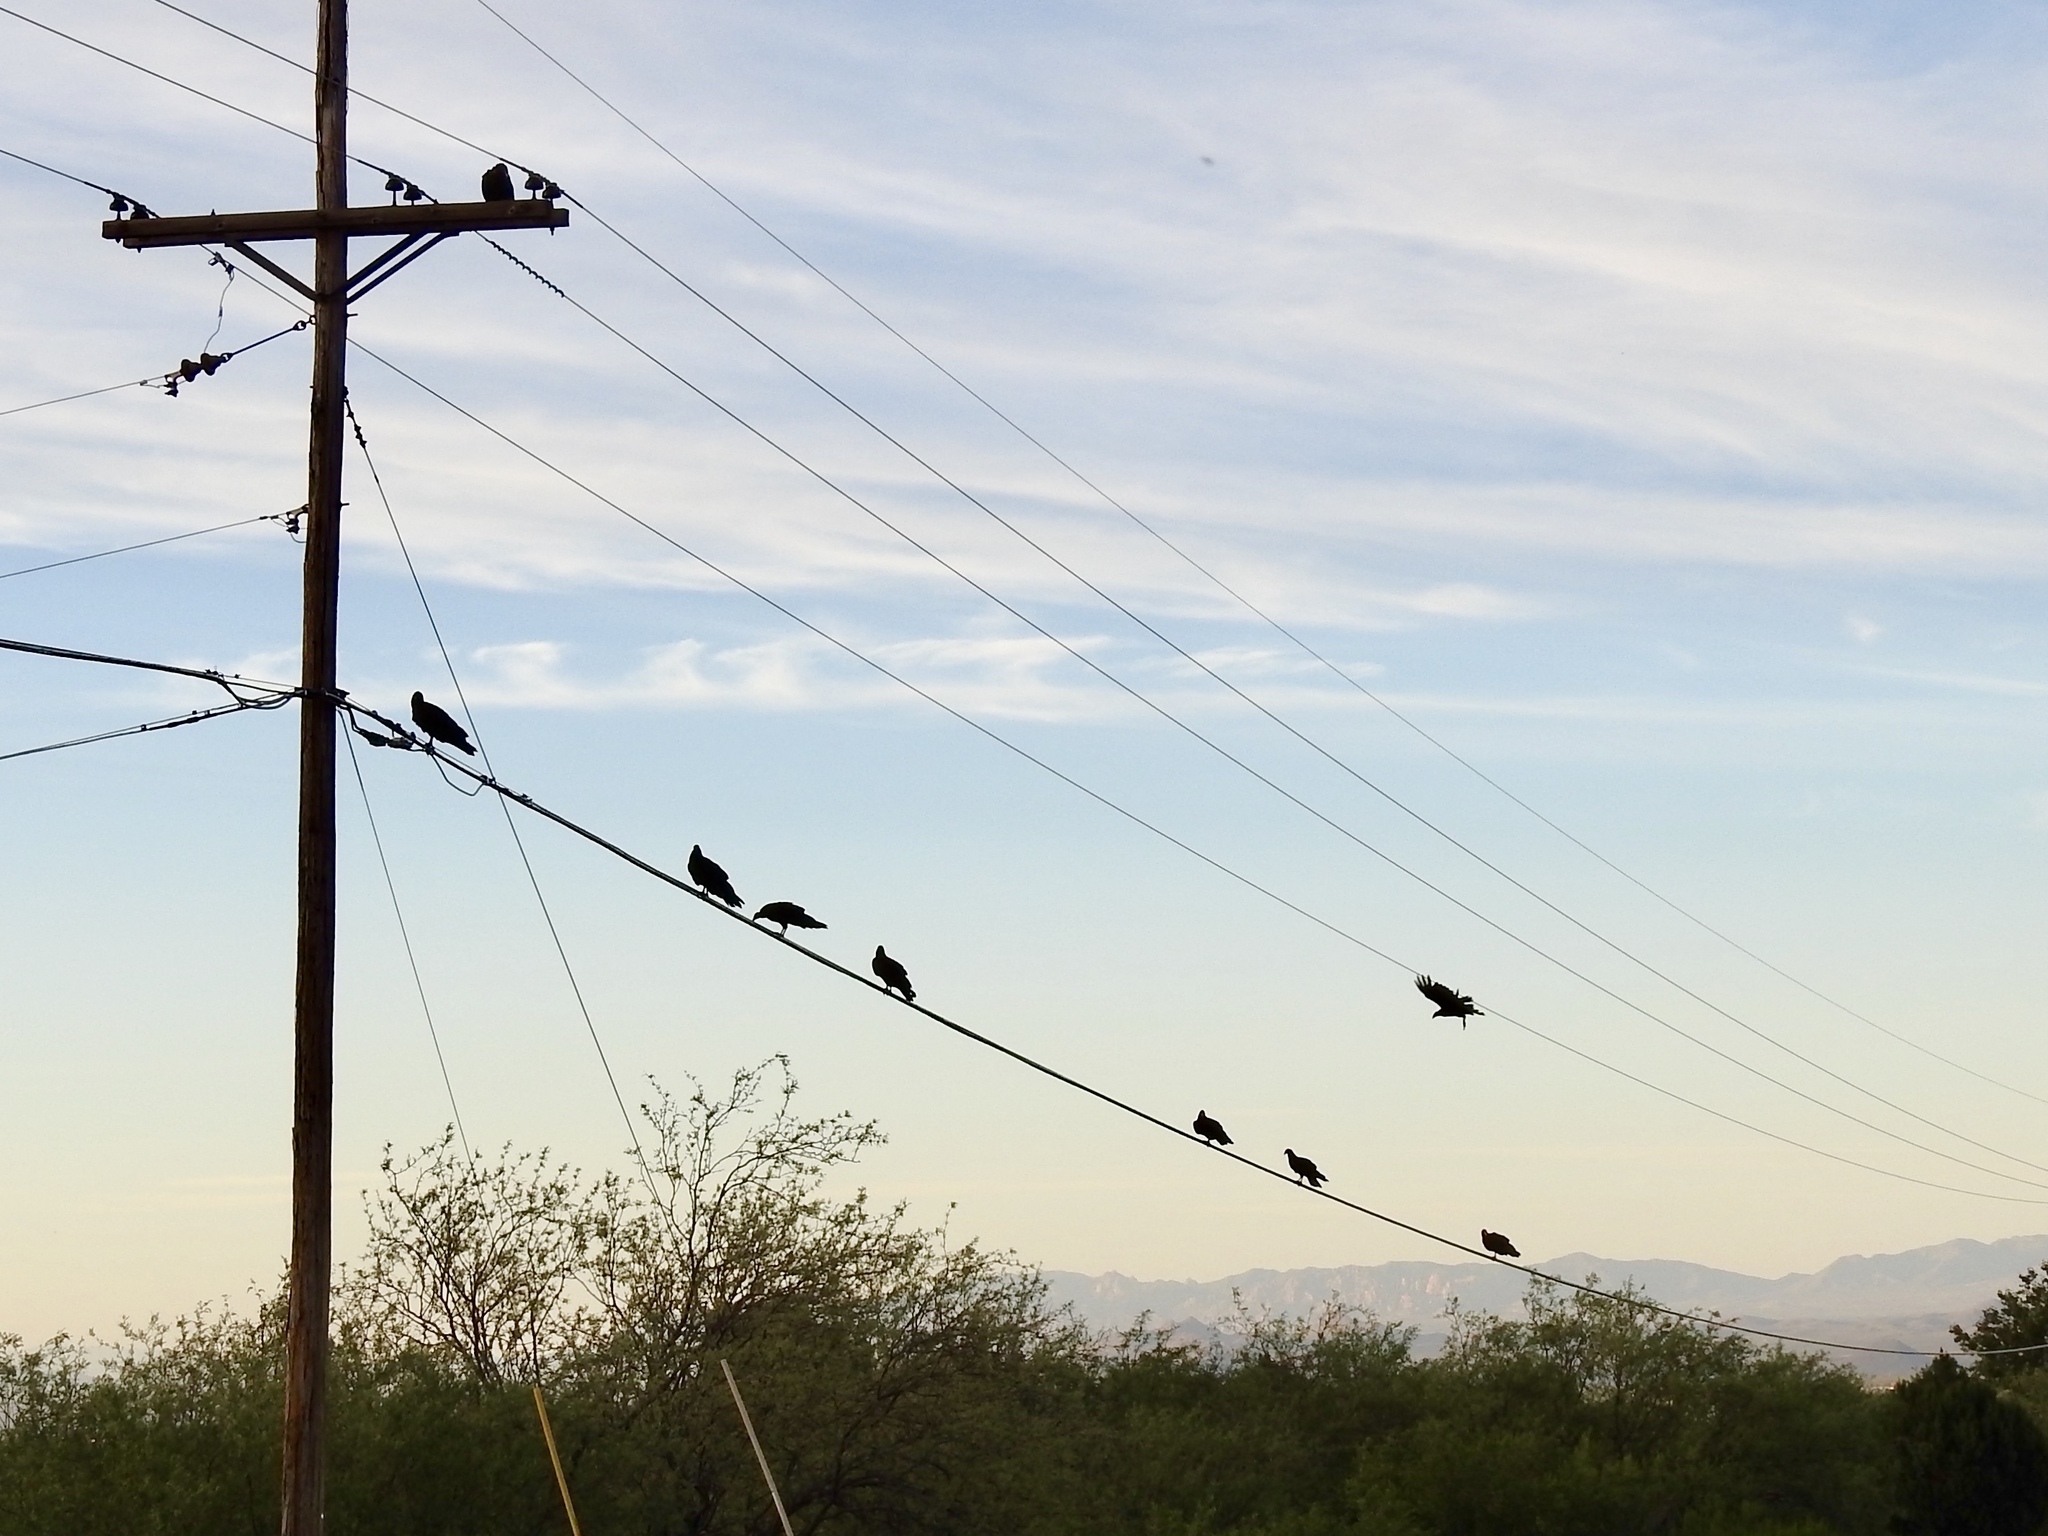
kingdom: Animalia
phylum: Chordata
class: Aves
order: Accipitriformes
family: Cathartidae
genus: Cathartes
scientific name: Cathartes aura
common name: Turkey vulture
